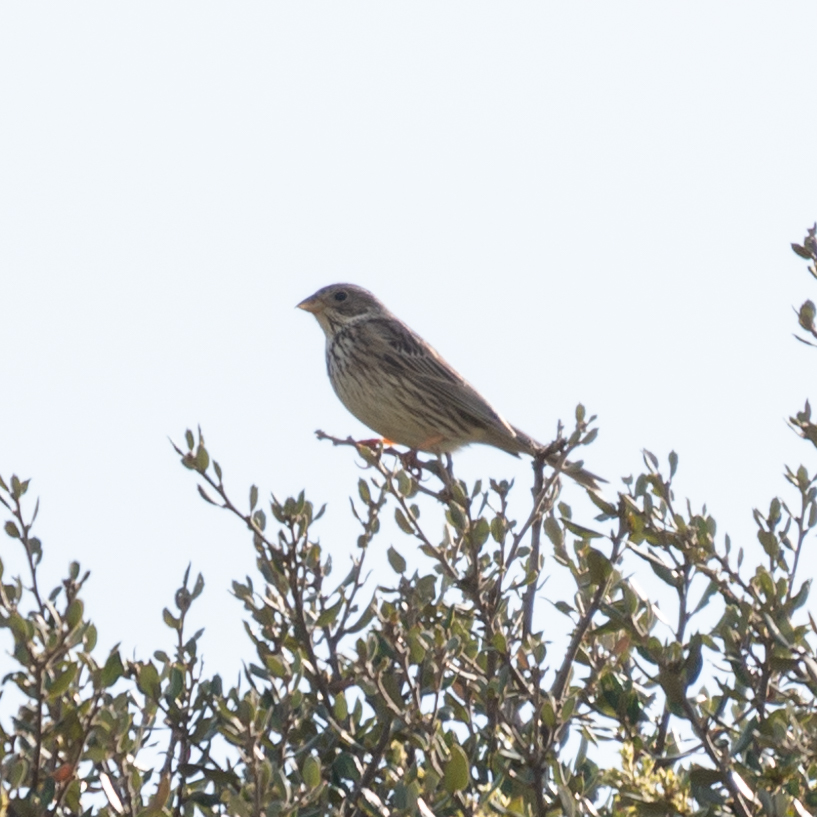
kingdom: Animalia
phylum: Chordata
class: Aves
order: Passeriformes
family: Emberizidae
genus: Emberiza
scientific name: Emberiza calandra
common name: Corn bunting
